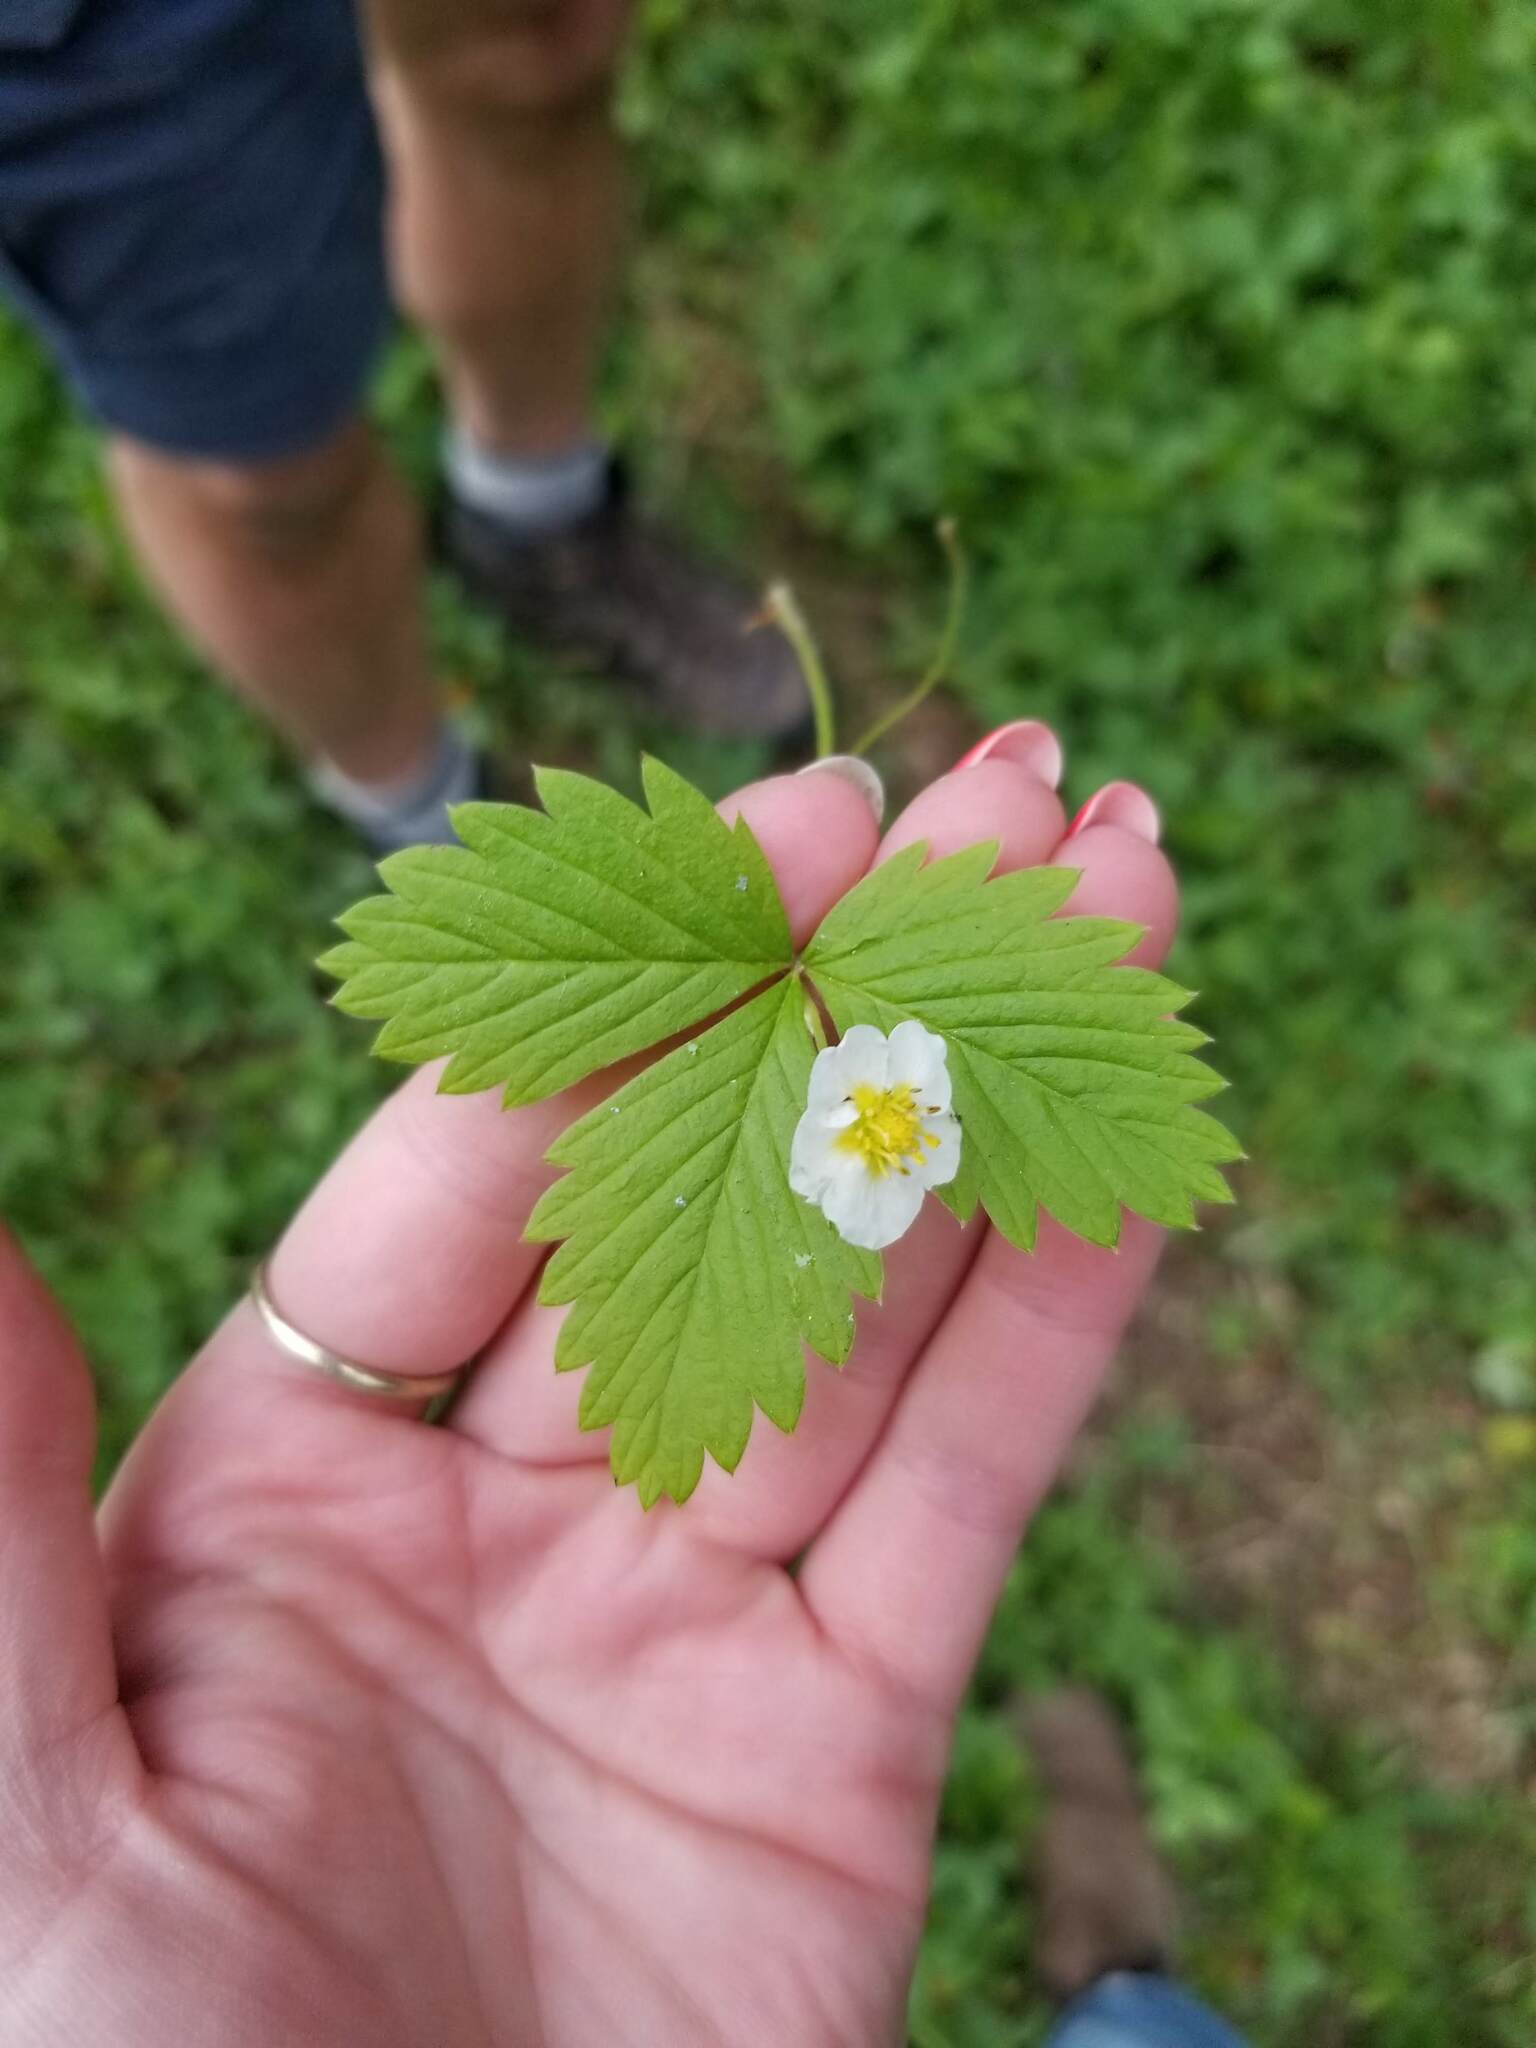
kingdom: Plantae
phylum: Tracheophyta
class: Magnoliopsida
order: Rosales
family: Rosaceae
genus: Fragaria
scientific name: Fragaria vesca
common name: Wild strawberry
